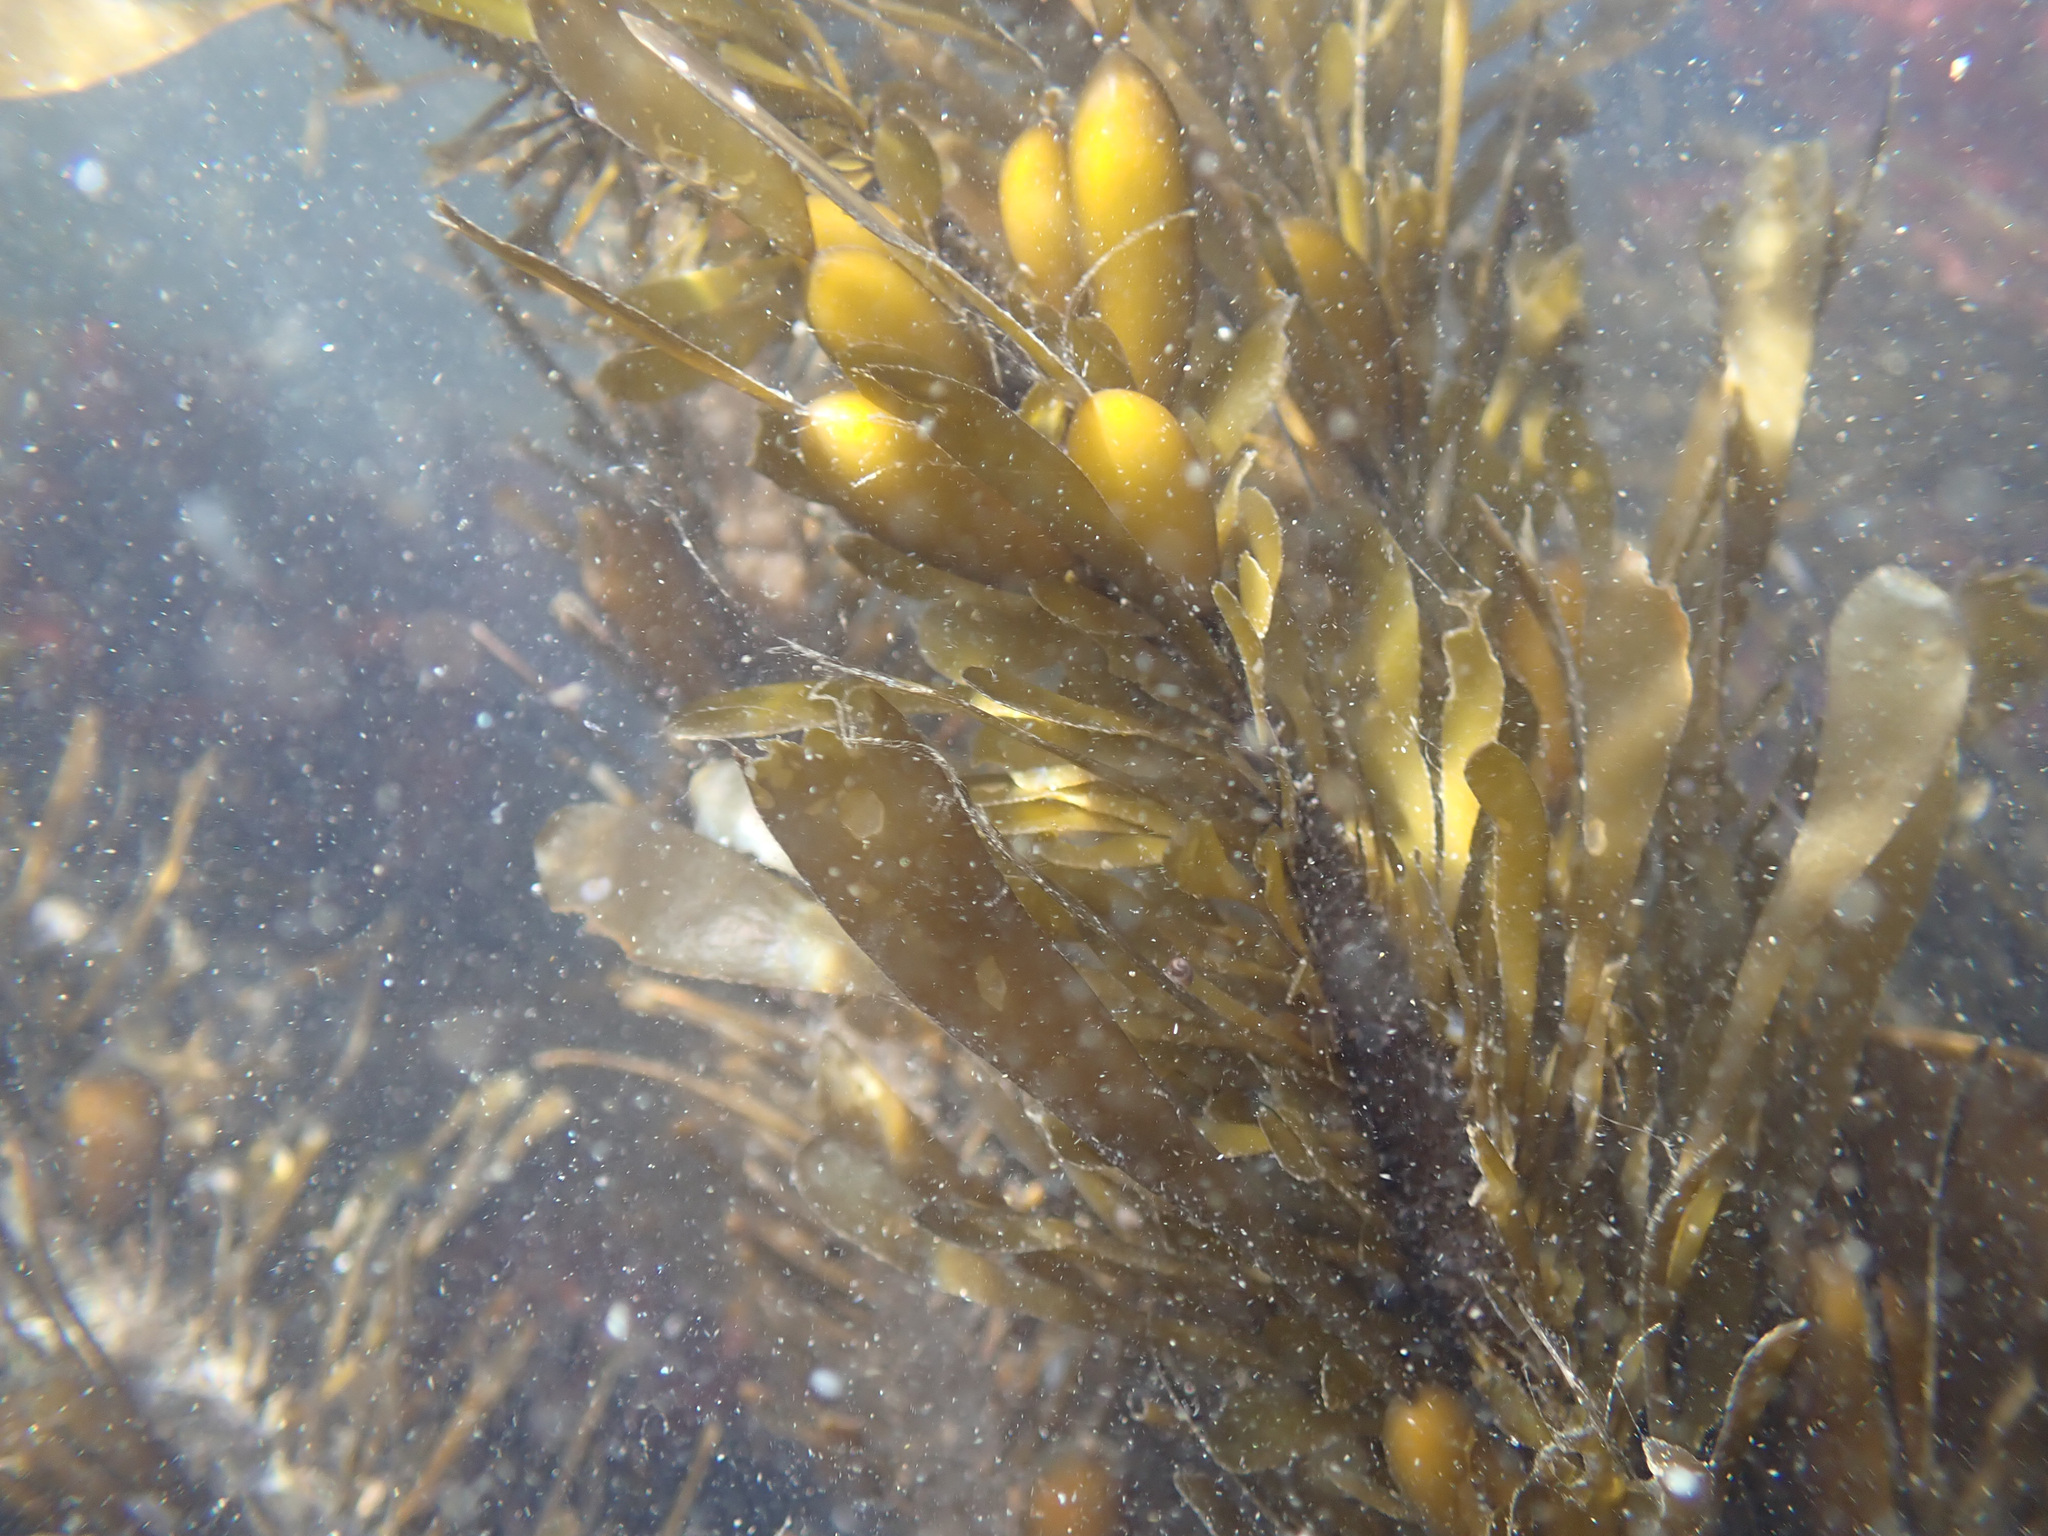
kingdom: Chromista
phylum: Ochrophyta
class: Phaeophyceae
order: Laminariales
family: Lessoniaceae
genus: Egregia
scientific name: Egregia menziesii
